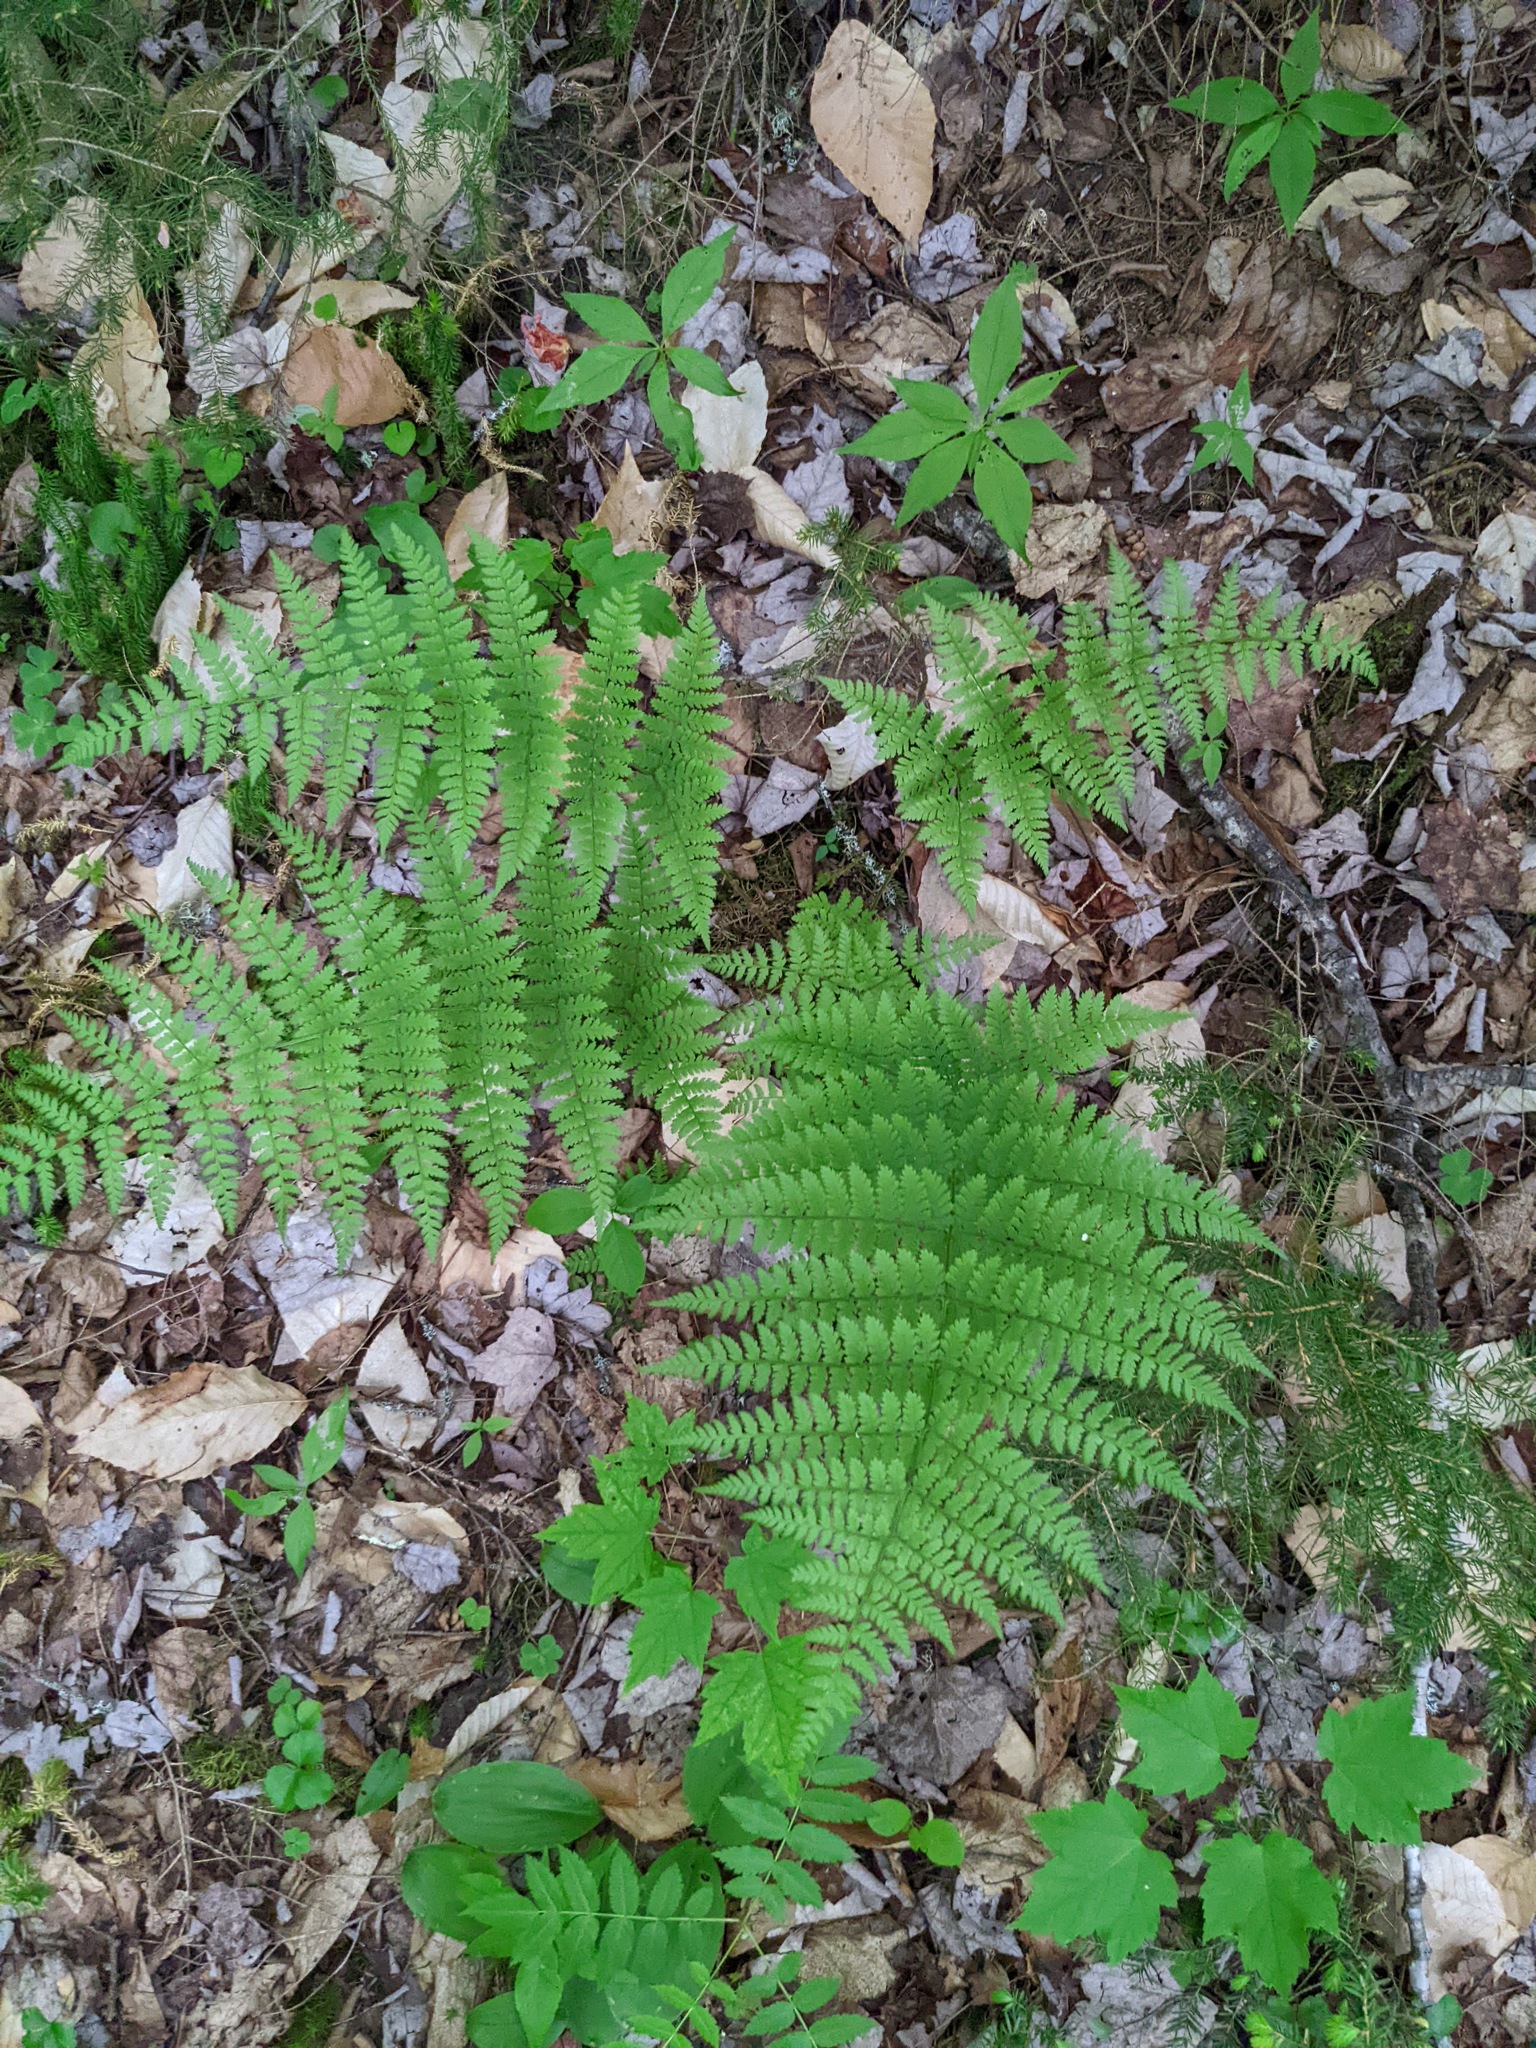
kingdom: Plantae
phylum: Tracheophyta
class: Polypodiopsida
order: Polypodiales
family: Dryopteridaceae
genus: Dryopteris
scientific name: Dryopteris intermedia
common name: Evergreen wood fern
